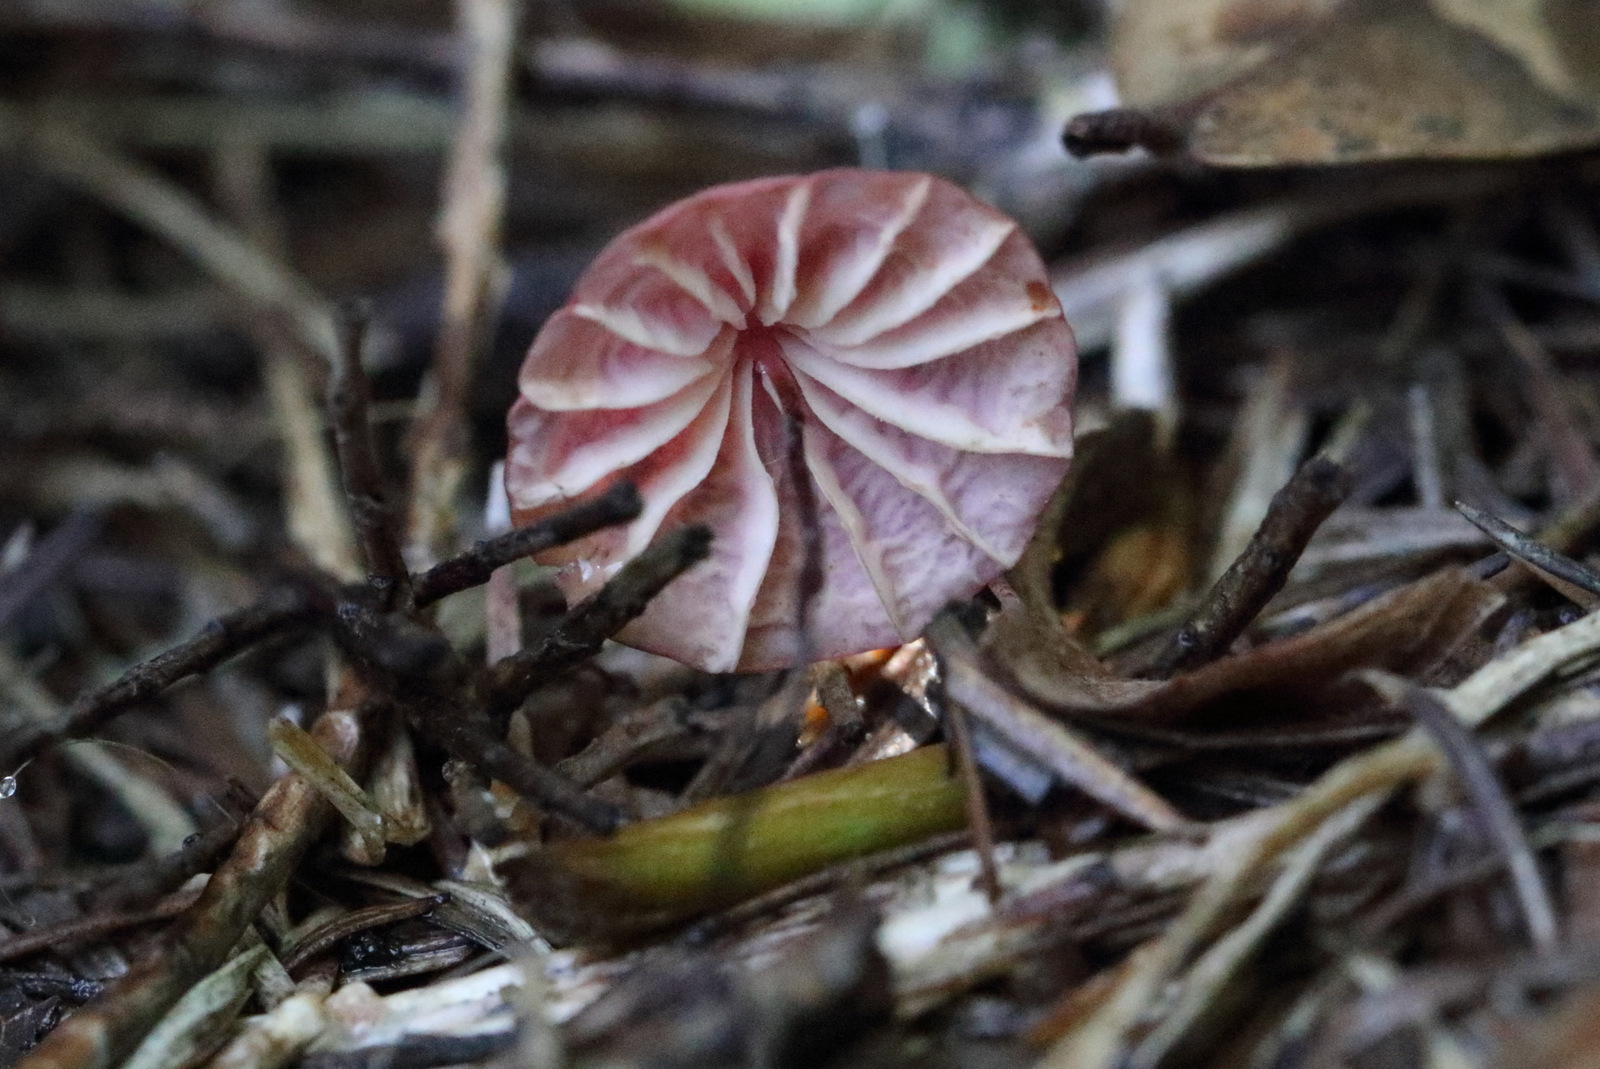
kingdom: Fungi
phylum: Basidiomycota
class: Agaricomycetes
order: Agaricales
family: Marasmiaceae
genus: Marasmius
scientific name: Marasmius haematocephalus
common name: Purple pinwheel
